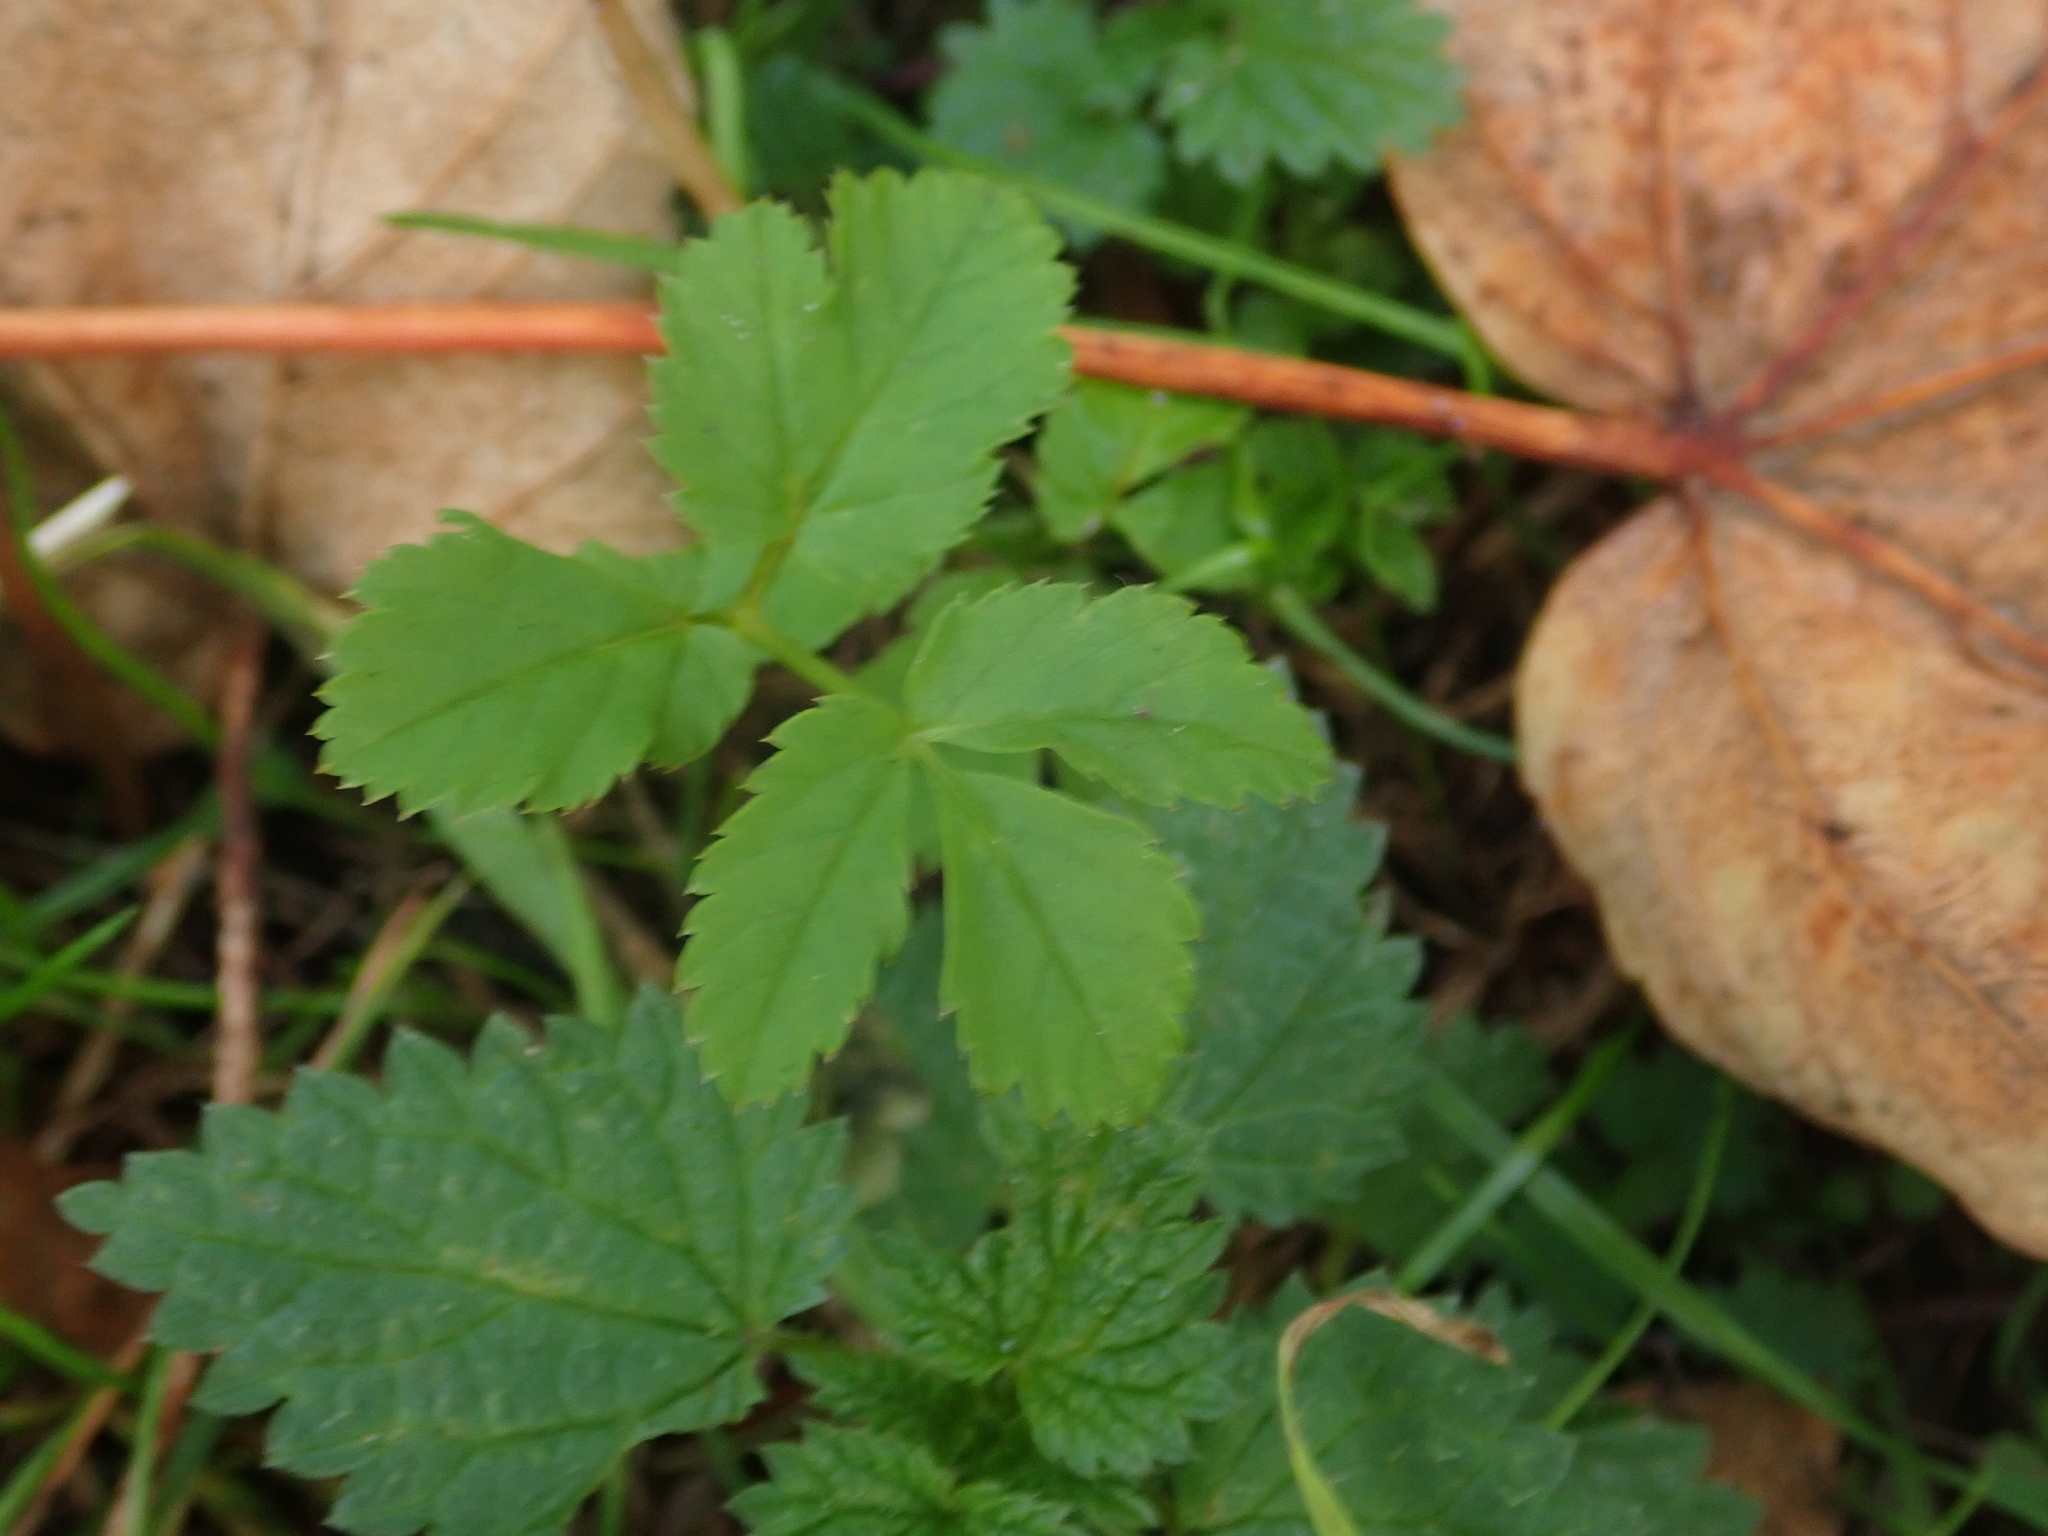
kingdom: Plantae
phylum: Tracheophyta
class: Magnoliopsida
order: Apiales
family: Apiaceae
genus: Aegopodium
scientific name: Aegopodium podagraria
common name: Ground-elder
